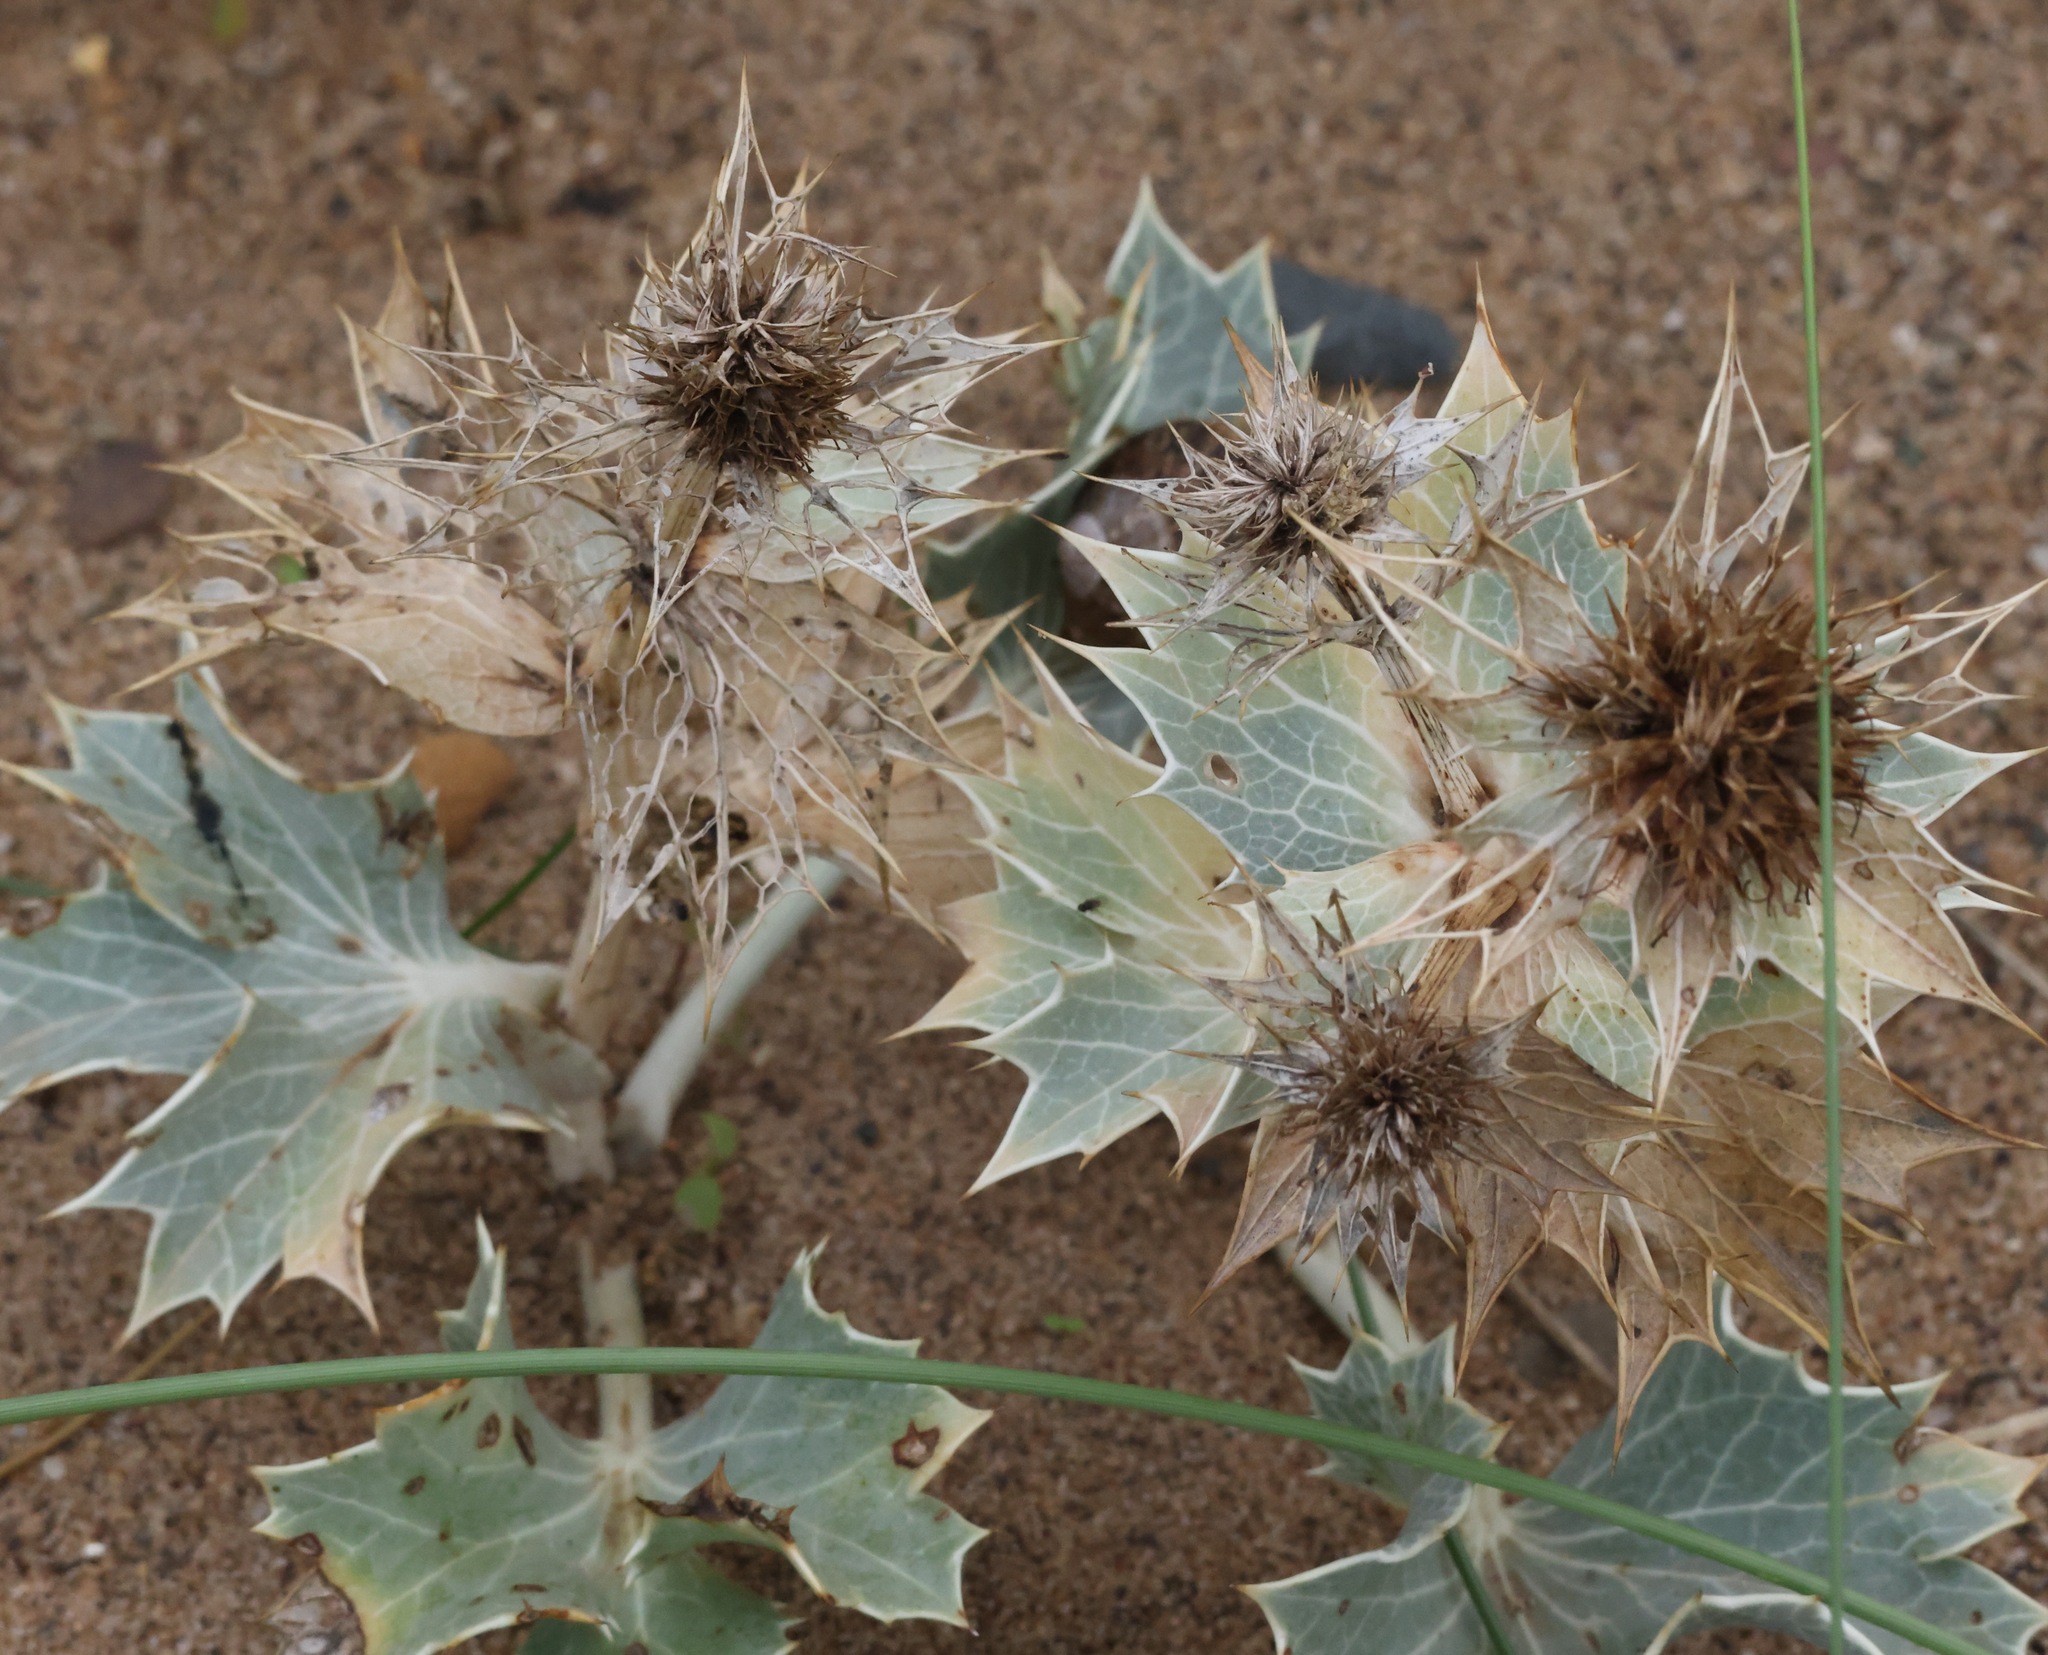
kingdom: Plantae
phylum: Tracheophyta
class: Magnoliopsida
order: Apiales
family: Apiaceae
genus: Eryngium
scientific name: Eryngium maritimum
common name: Sea-holly
